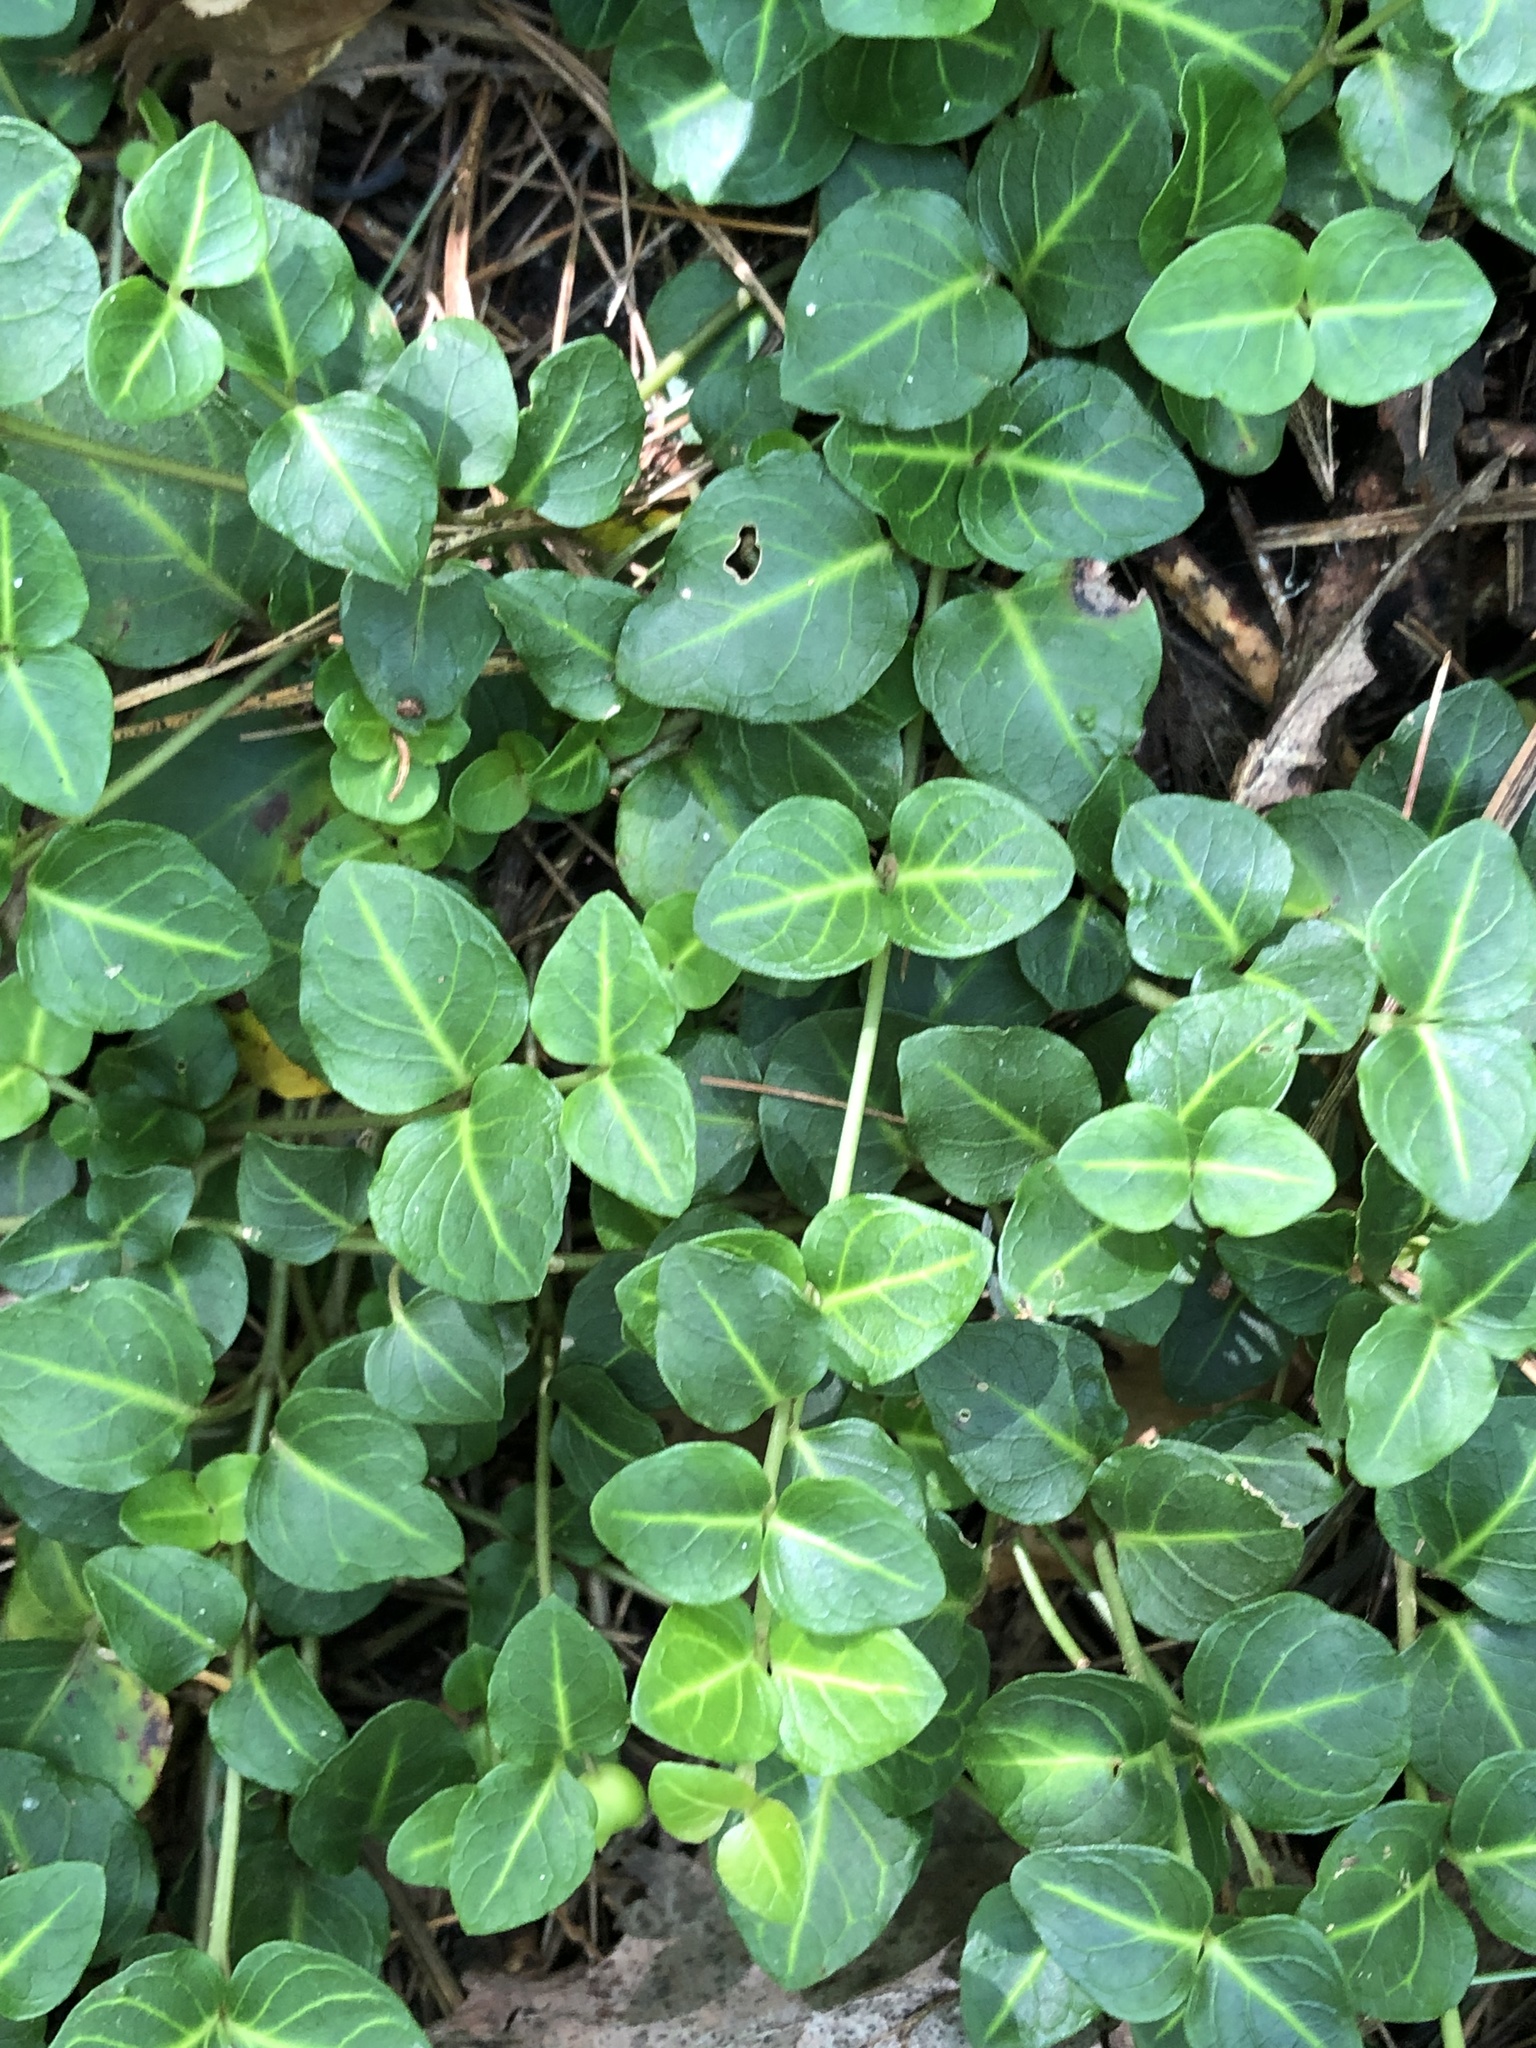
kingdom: Plantae
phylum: Tracheophyta
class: Magnoliopsida
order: Gentianales
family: Rubiaceae
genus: Mitchella
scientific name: Mitchella repens
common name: Partridge-berry
